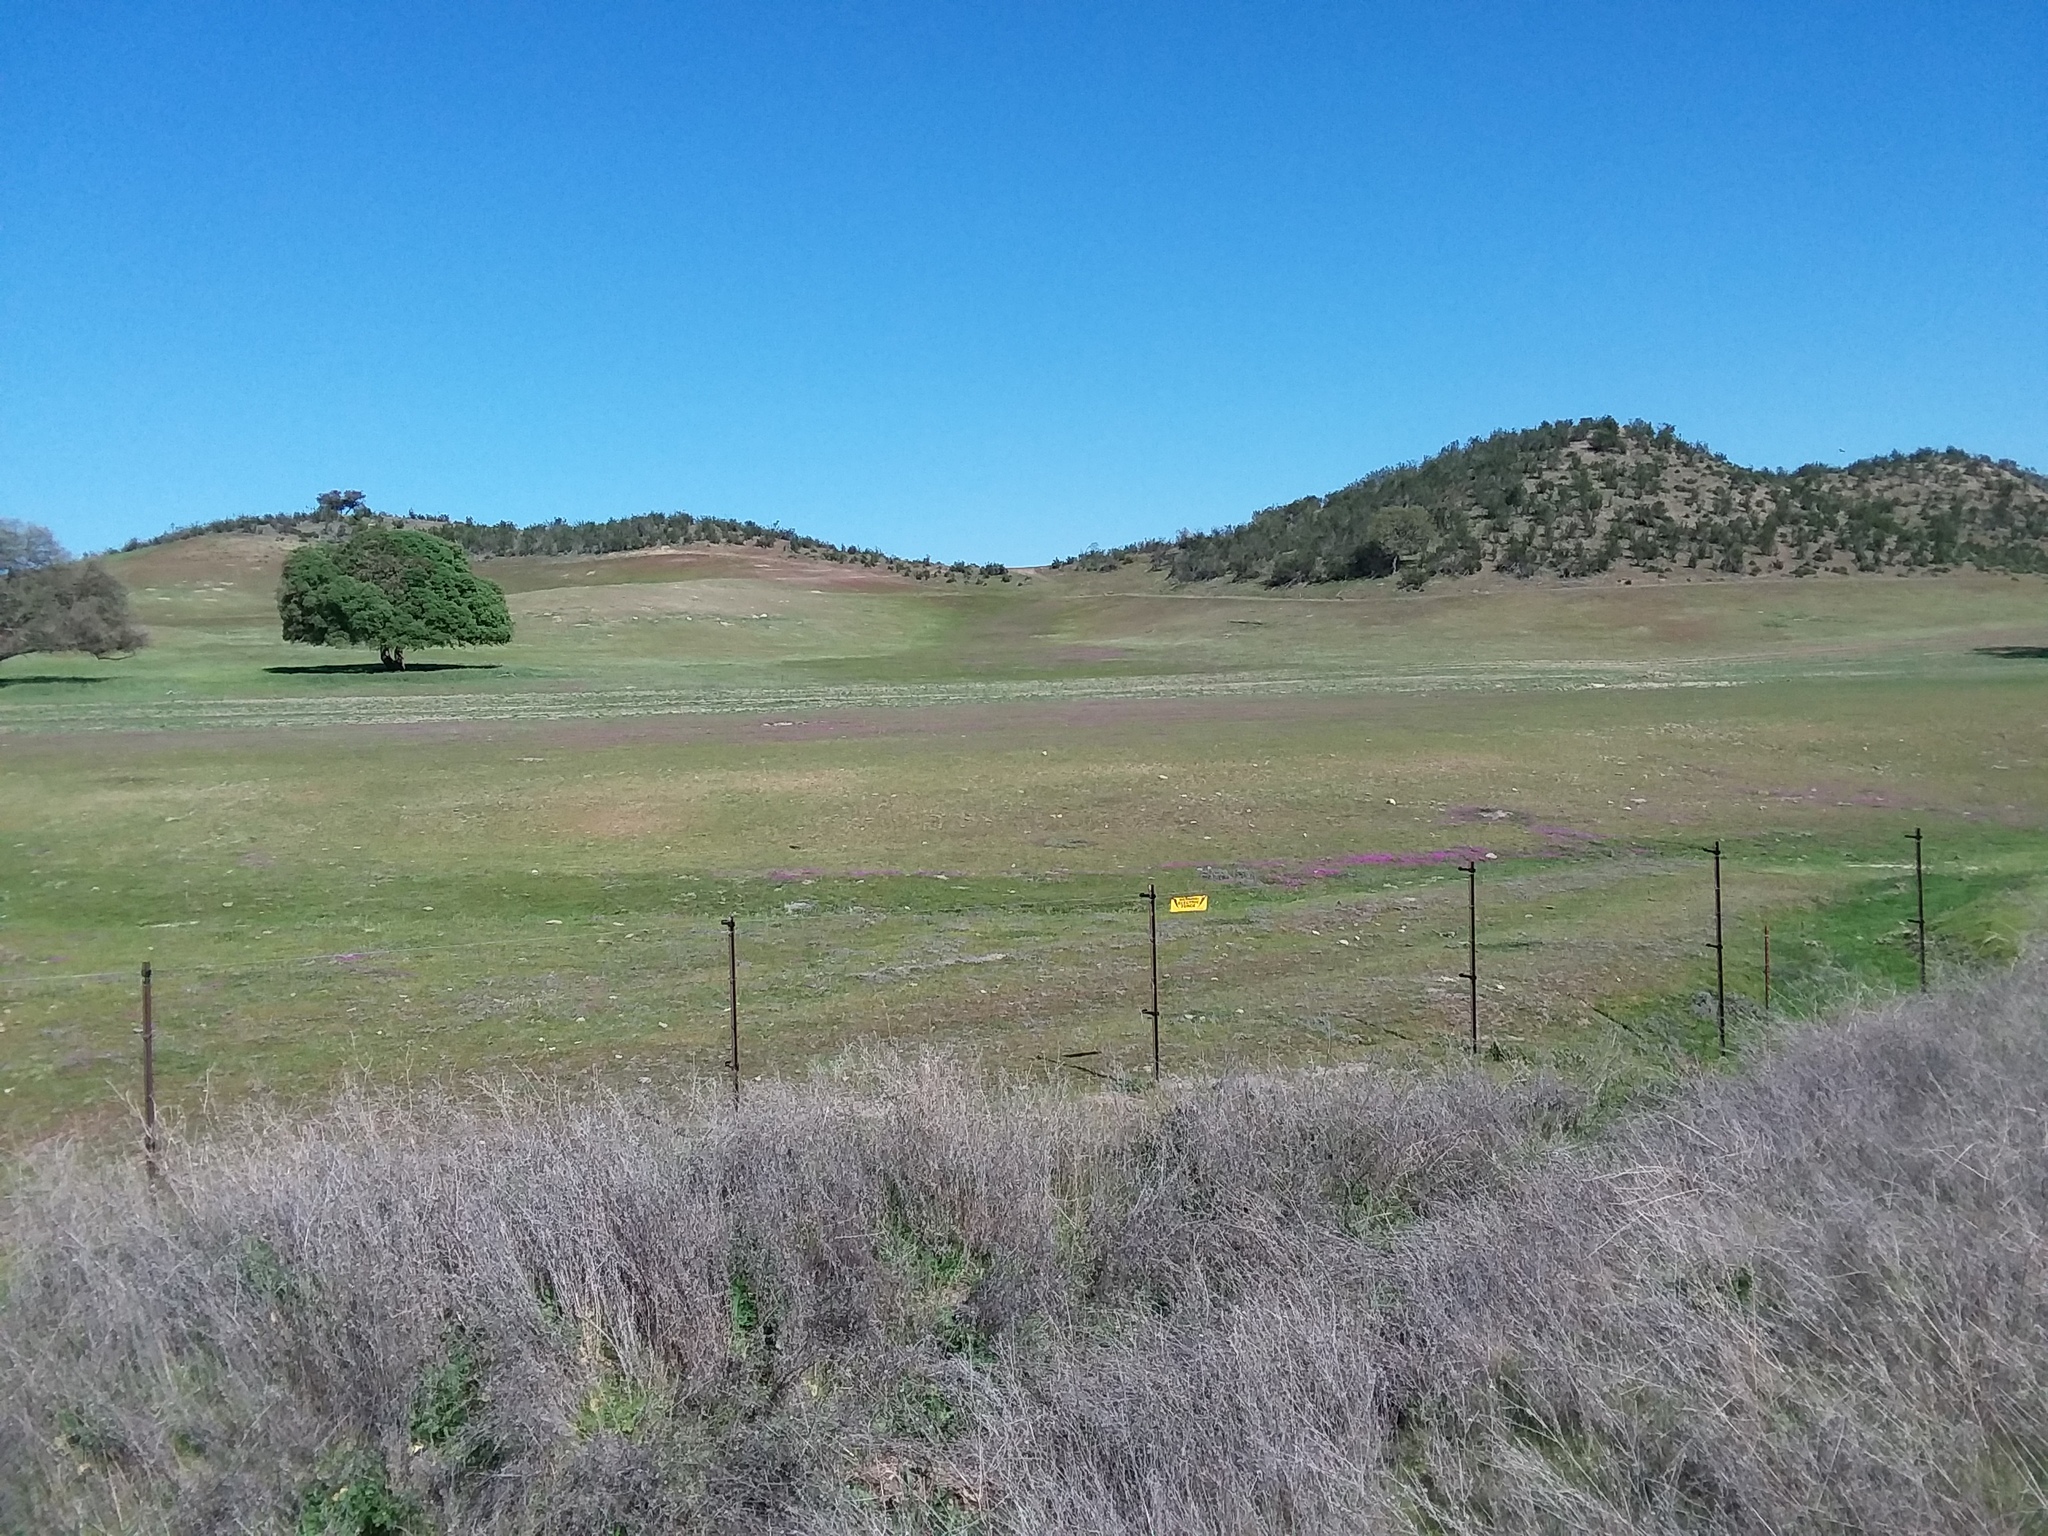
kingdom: Plantae
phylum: Tracheophyta
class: Magnoliopsida
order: Caryophyllales
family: Montiaceae
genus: Calandrinia
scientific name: Calandrinia menziesii
